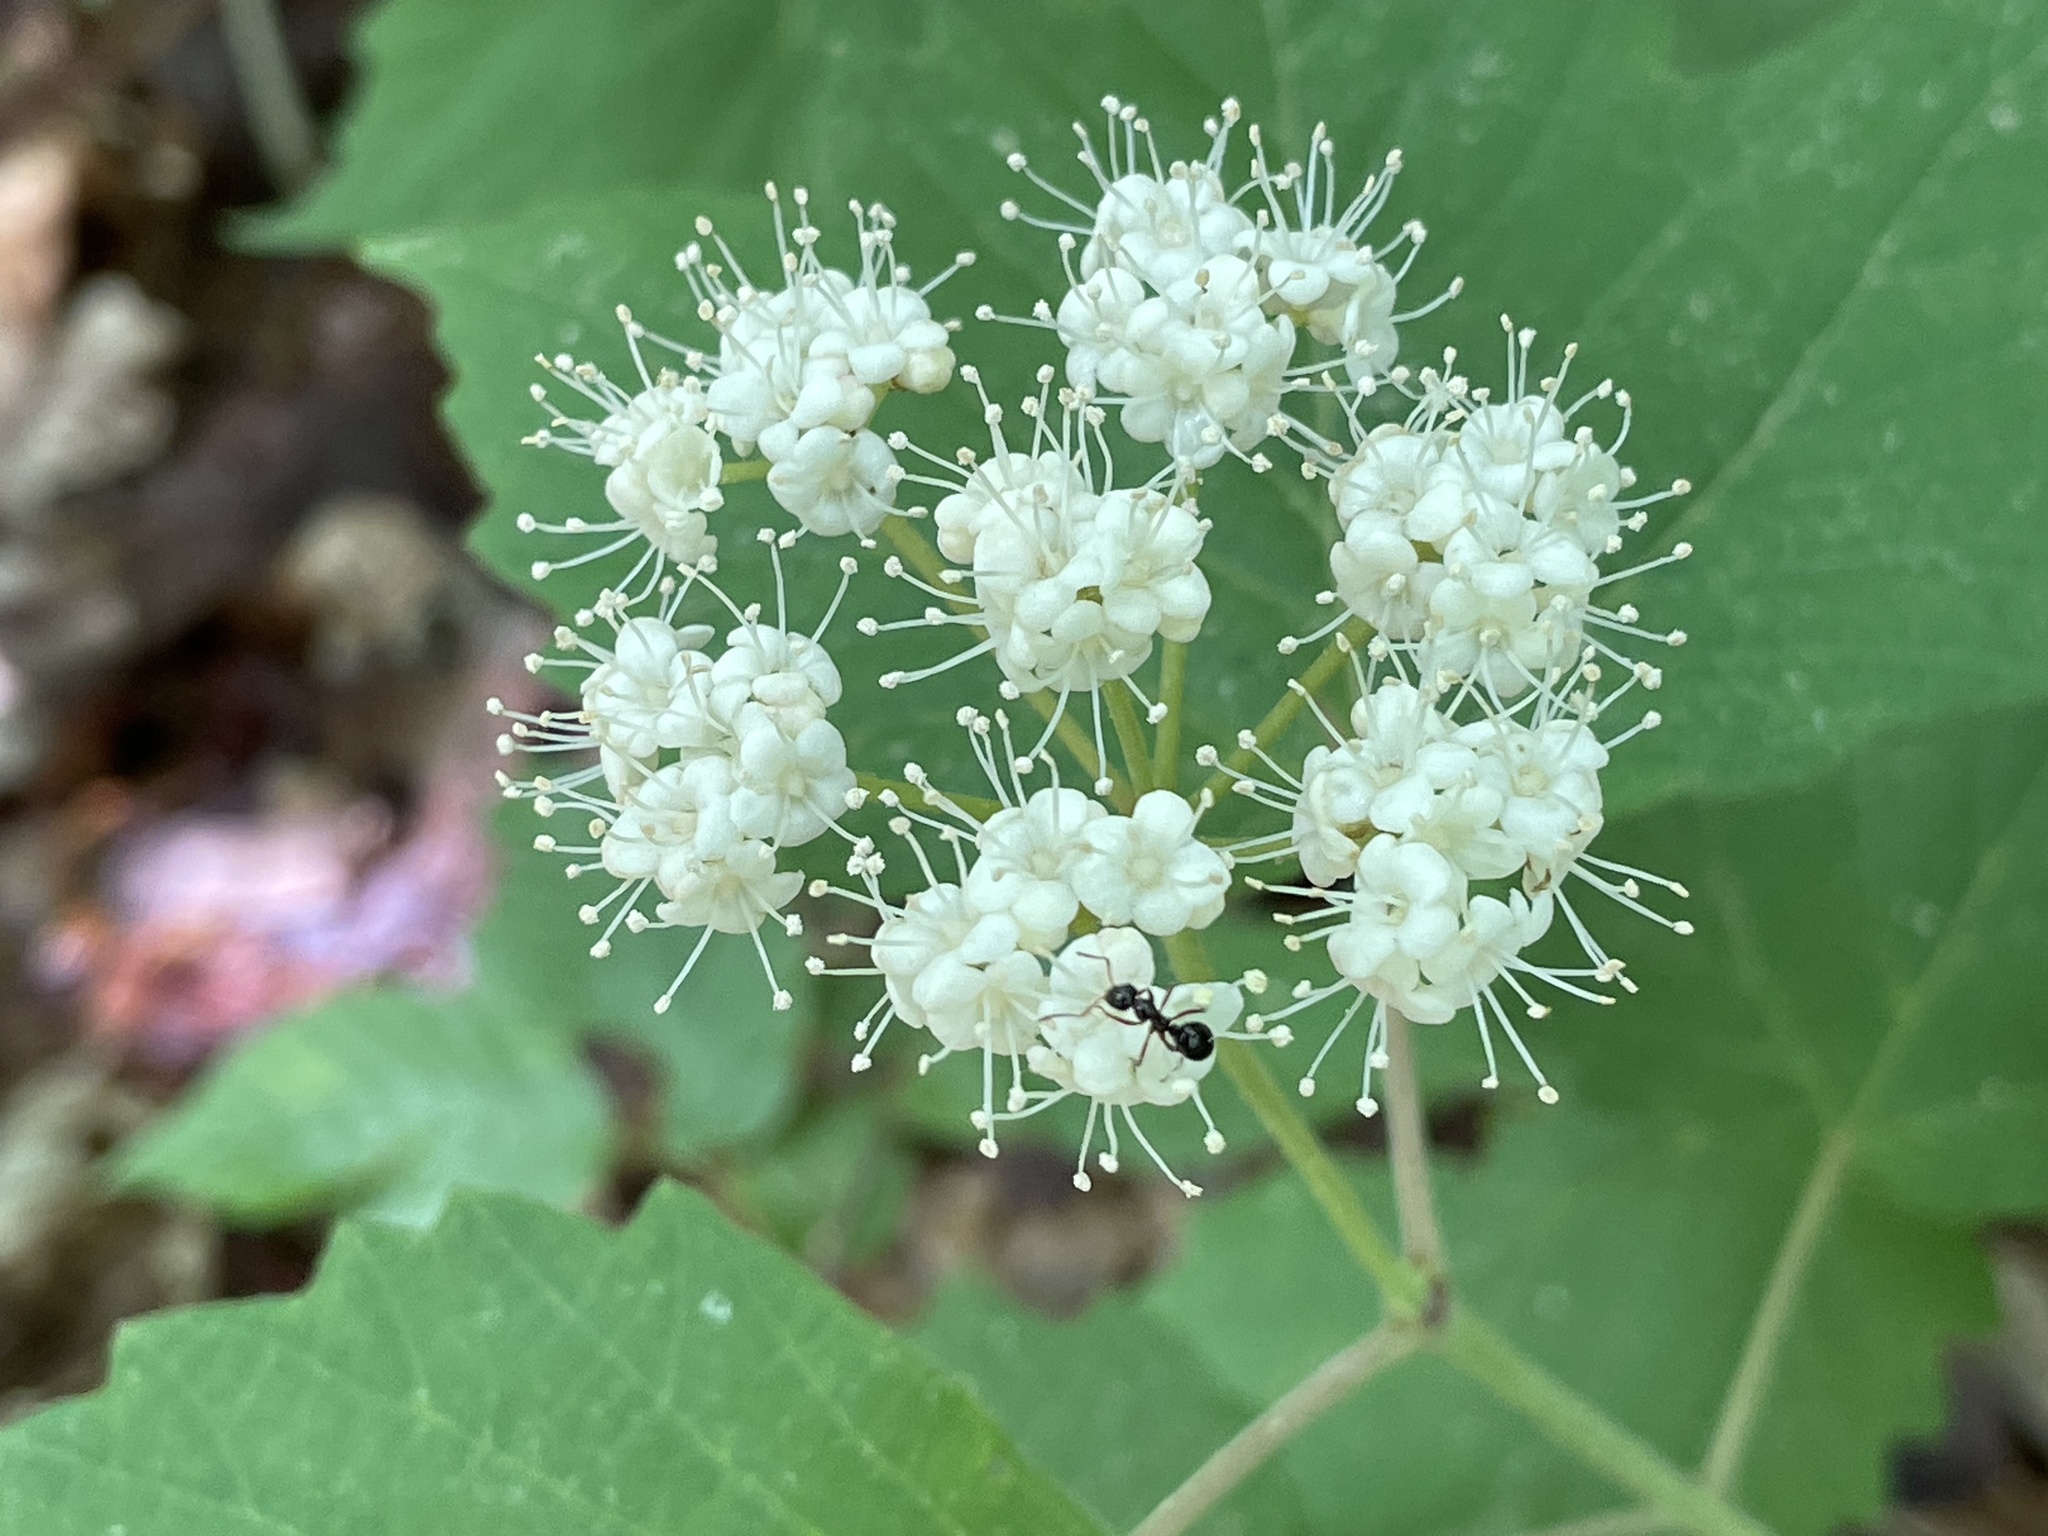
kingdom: Plantae
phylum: Tracheophyta
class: Magnoliopsida
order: Dipsacales
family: Viburnaceae
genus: Viburnum
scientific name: Viburnum acerifolium
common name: Dockmackie
